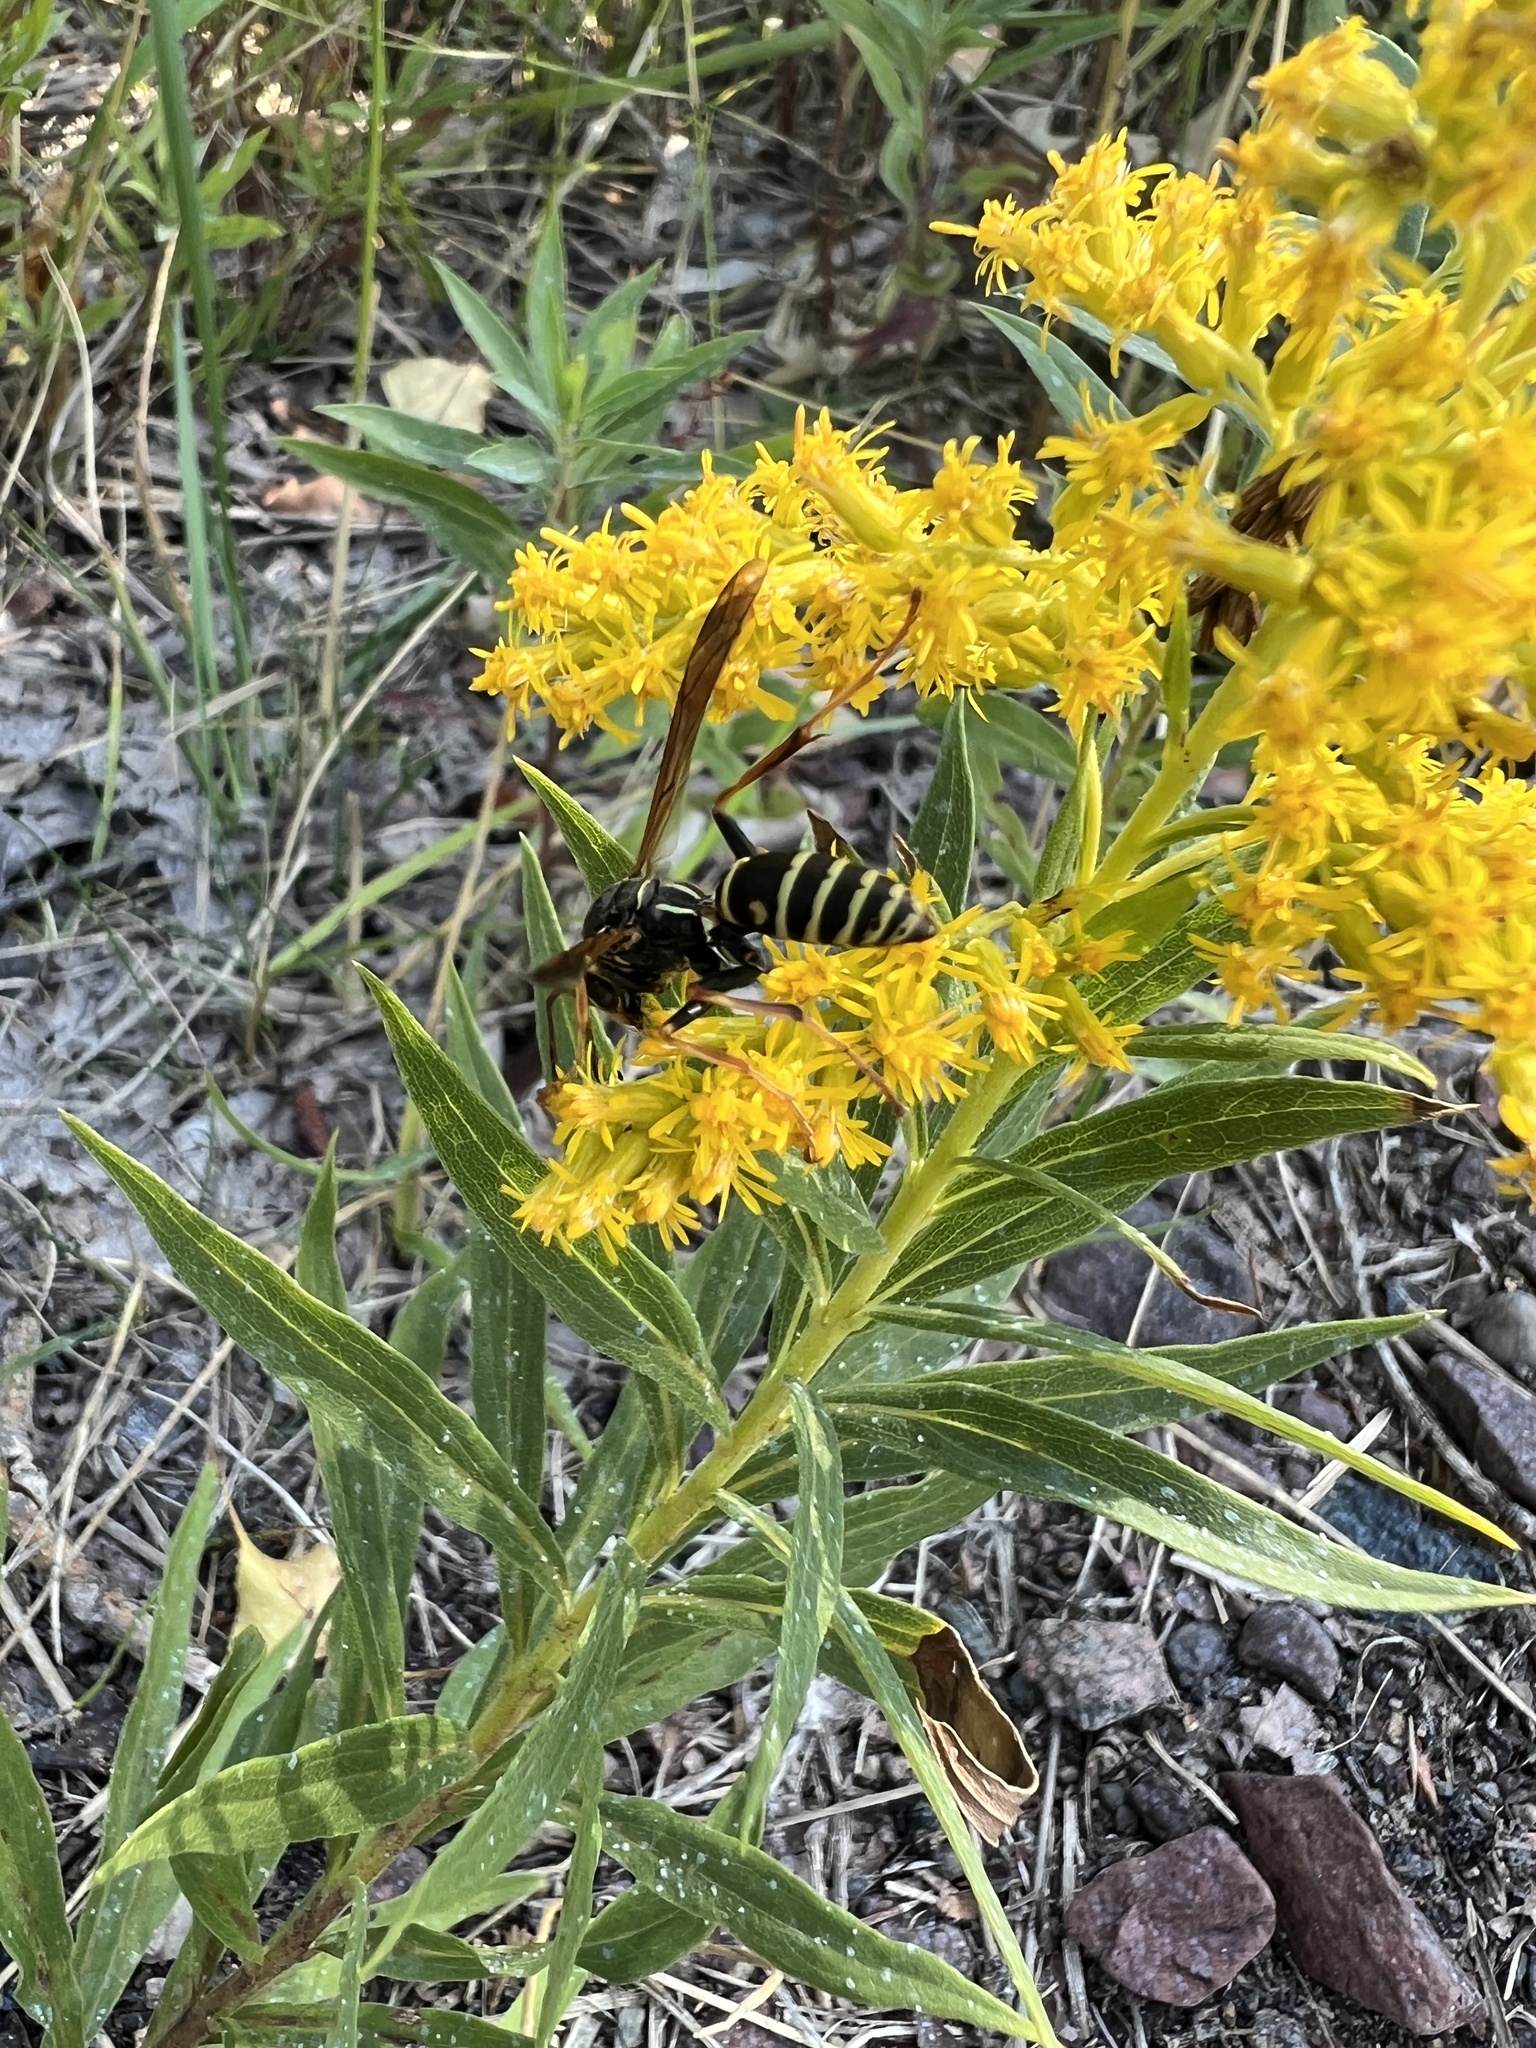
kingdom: Animalia
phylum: Arthropoda
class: Insecta
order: Hymenoptera
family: Eumenidae
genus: Polistes
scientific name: Polistes fuscatus
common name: Dark paper wasp
